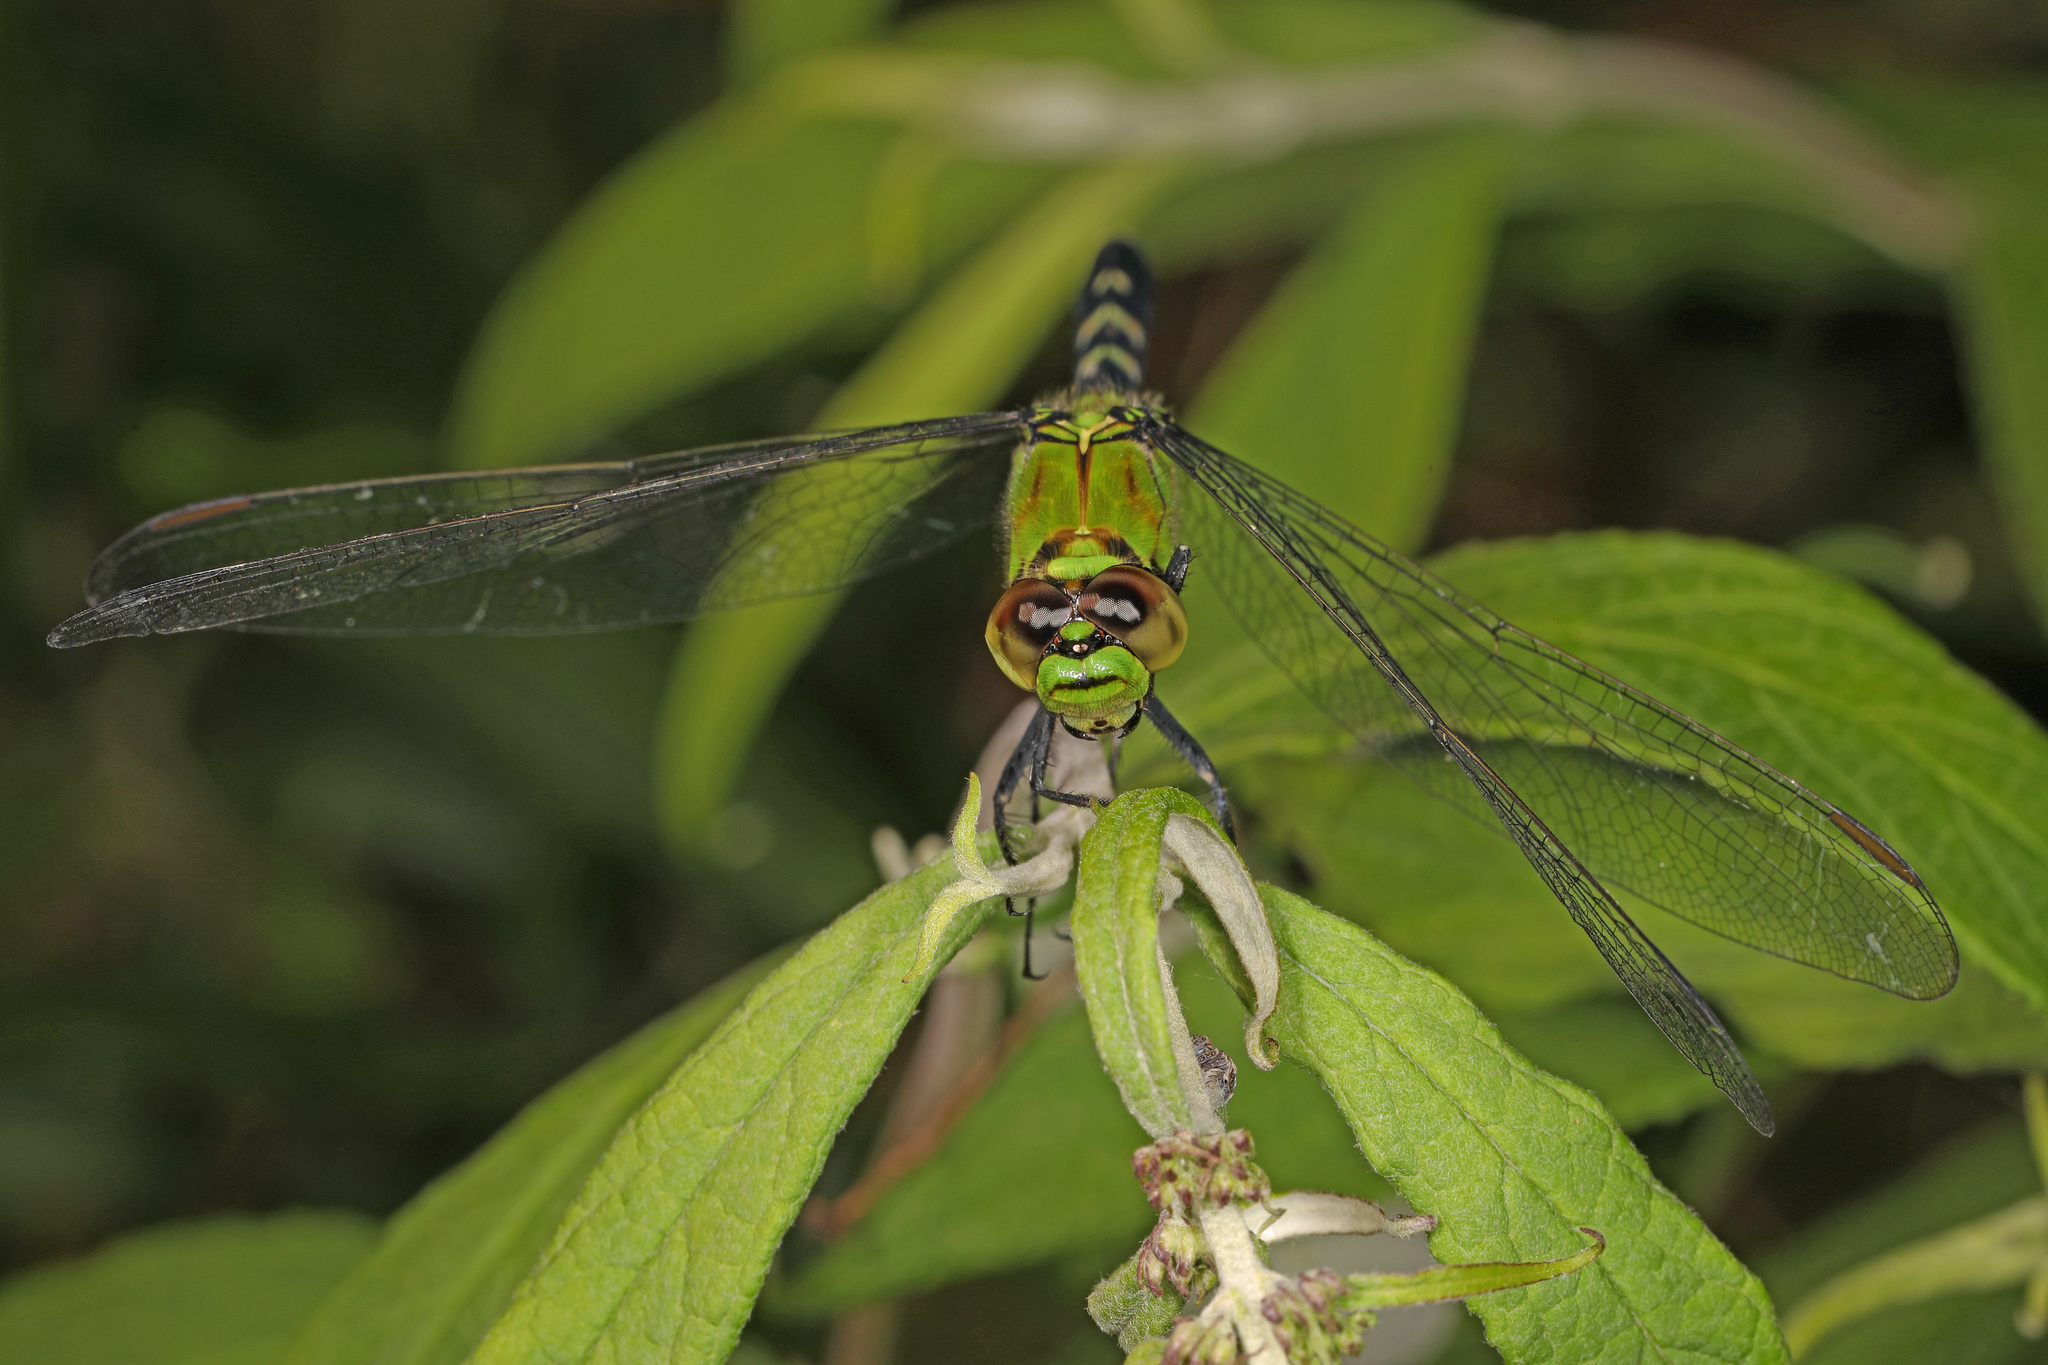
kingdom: Animalia
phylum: Arthropoda
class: Insecta
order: Odonata
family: Libellulidae
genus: Erythemis
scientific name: Erythemis simplicicollis
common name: Eastern pondhawk
